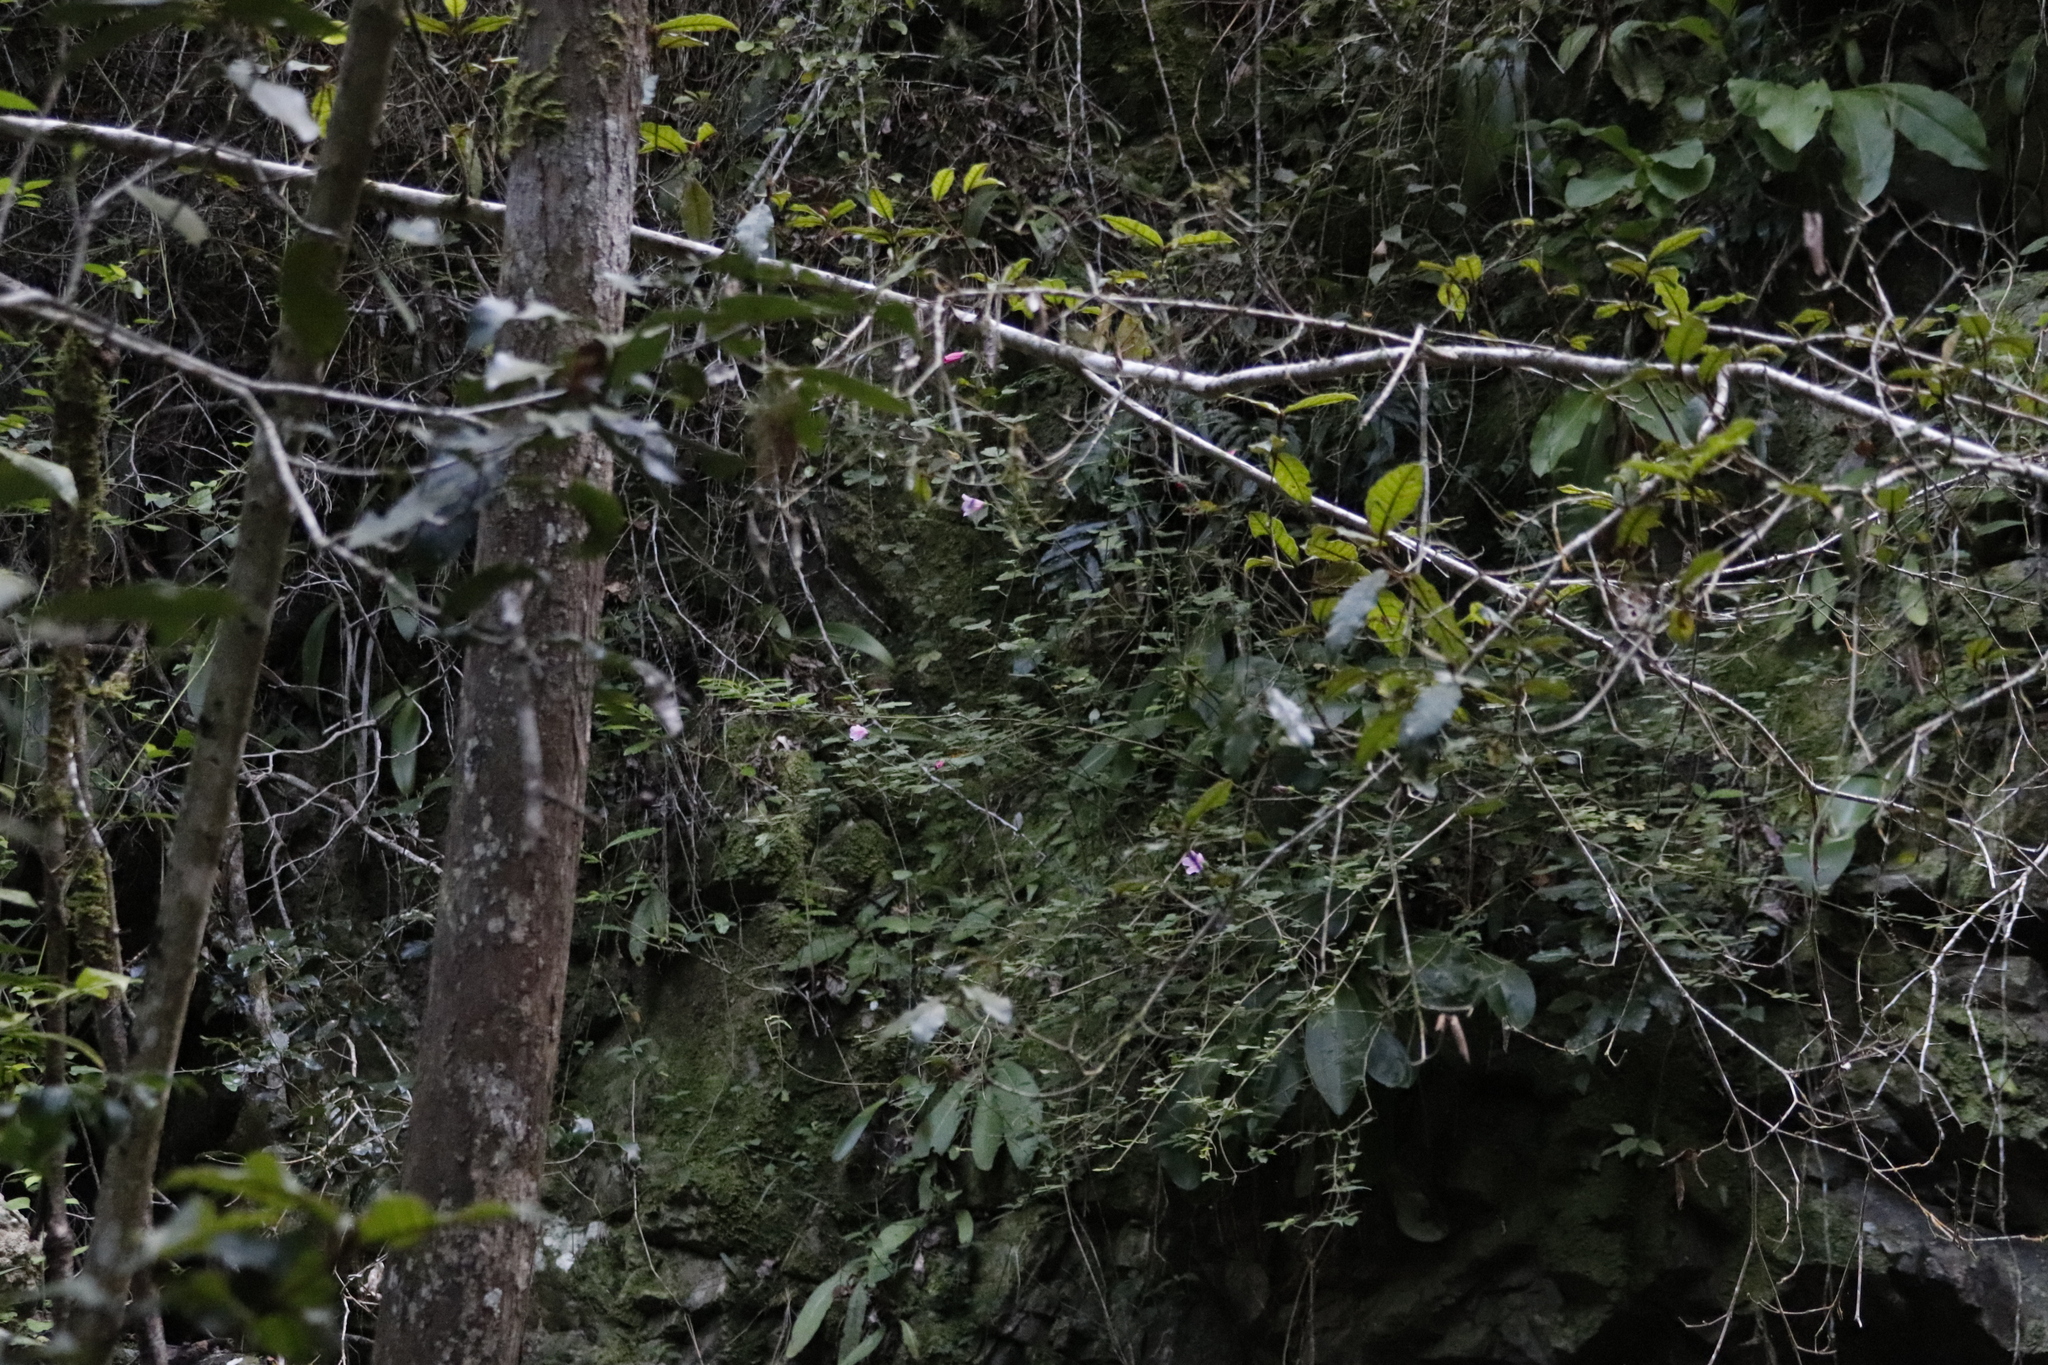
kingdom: Plantae
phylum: Tracheophyta
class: Magnoliopsida
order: Malvales
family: Malvaceae
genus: Hibiscus
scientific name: Hibiscus pedunculatus
